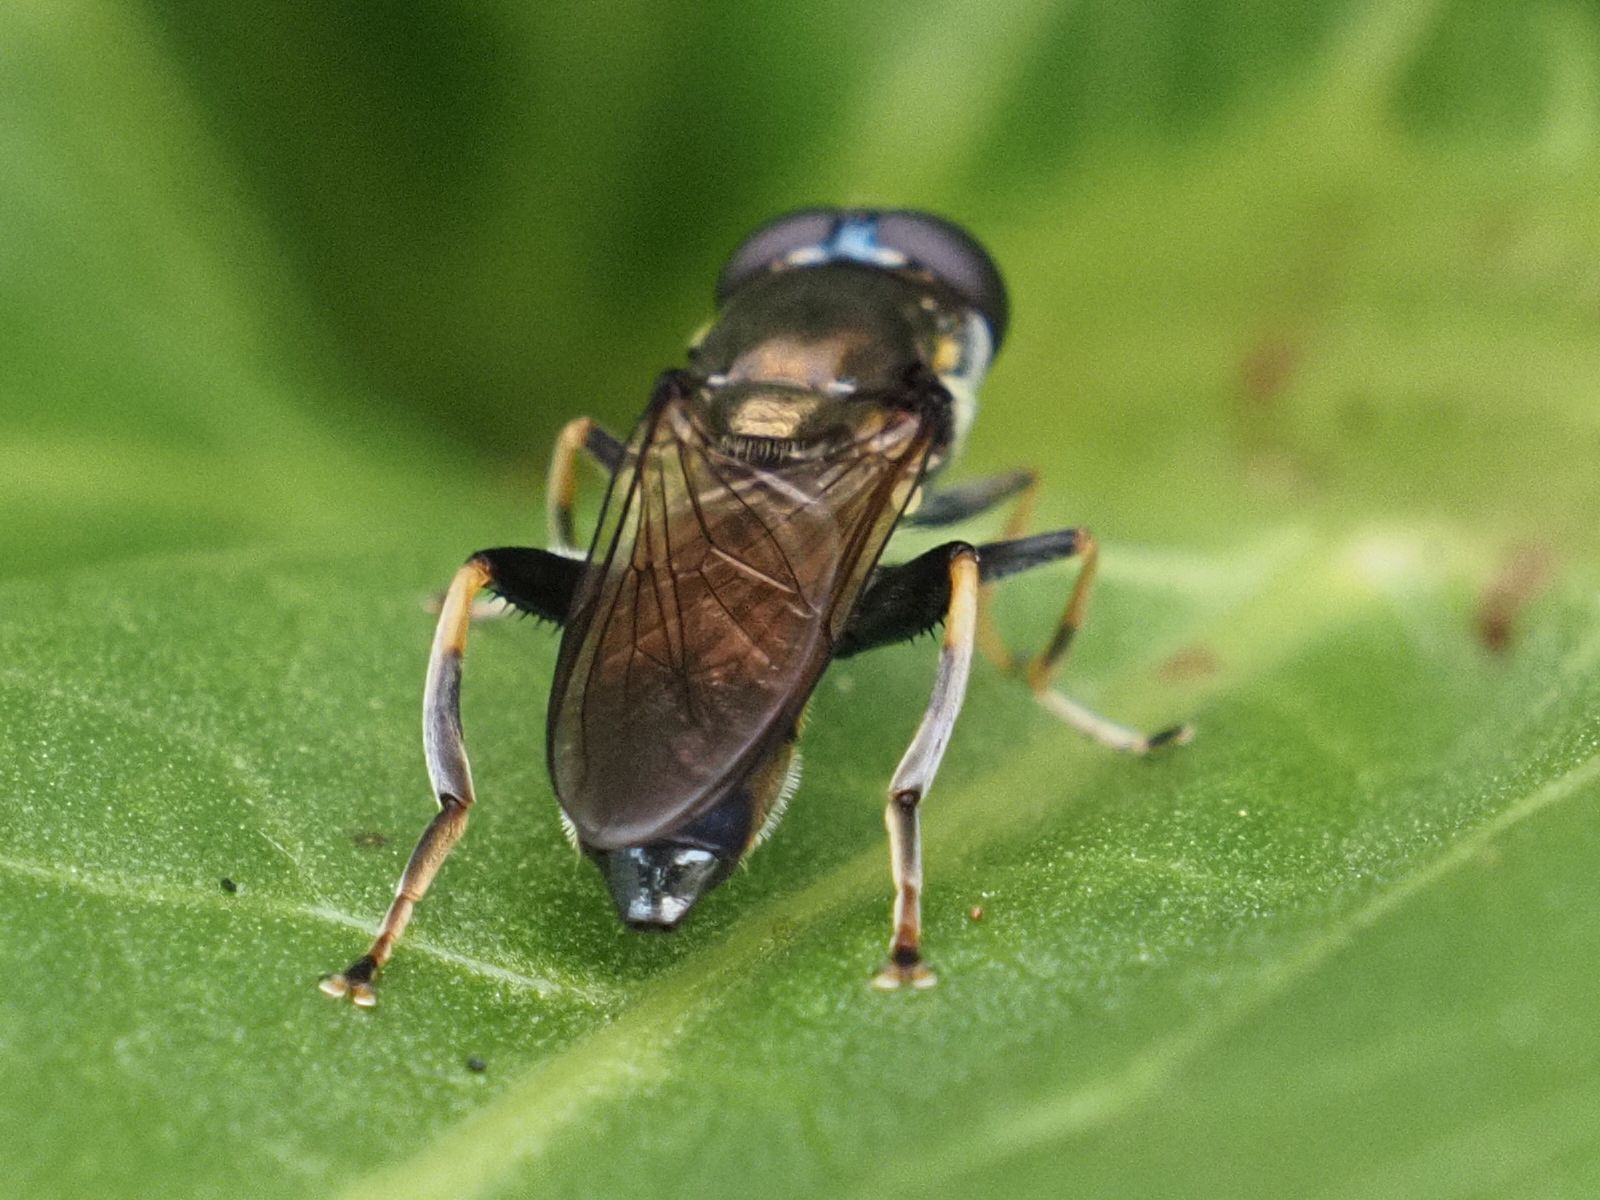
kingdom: Animalia
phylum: Arthropoda
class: Insecta
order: Diptera
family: Syrphidae
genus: Xylota
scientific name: Xylota segnis
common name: Brown-toed forest fly
